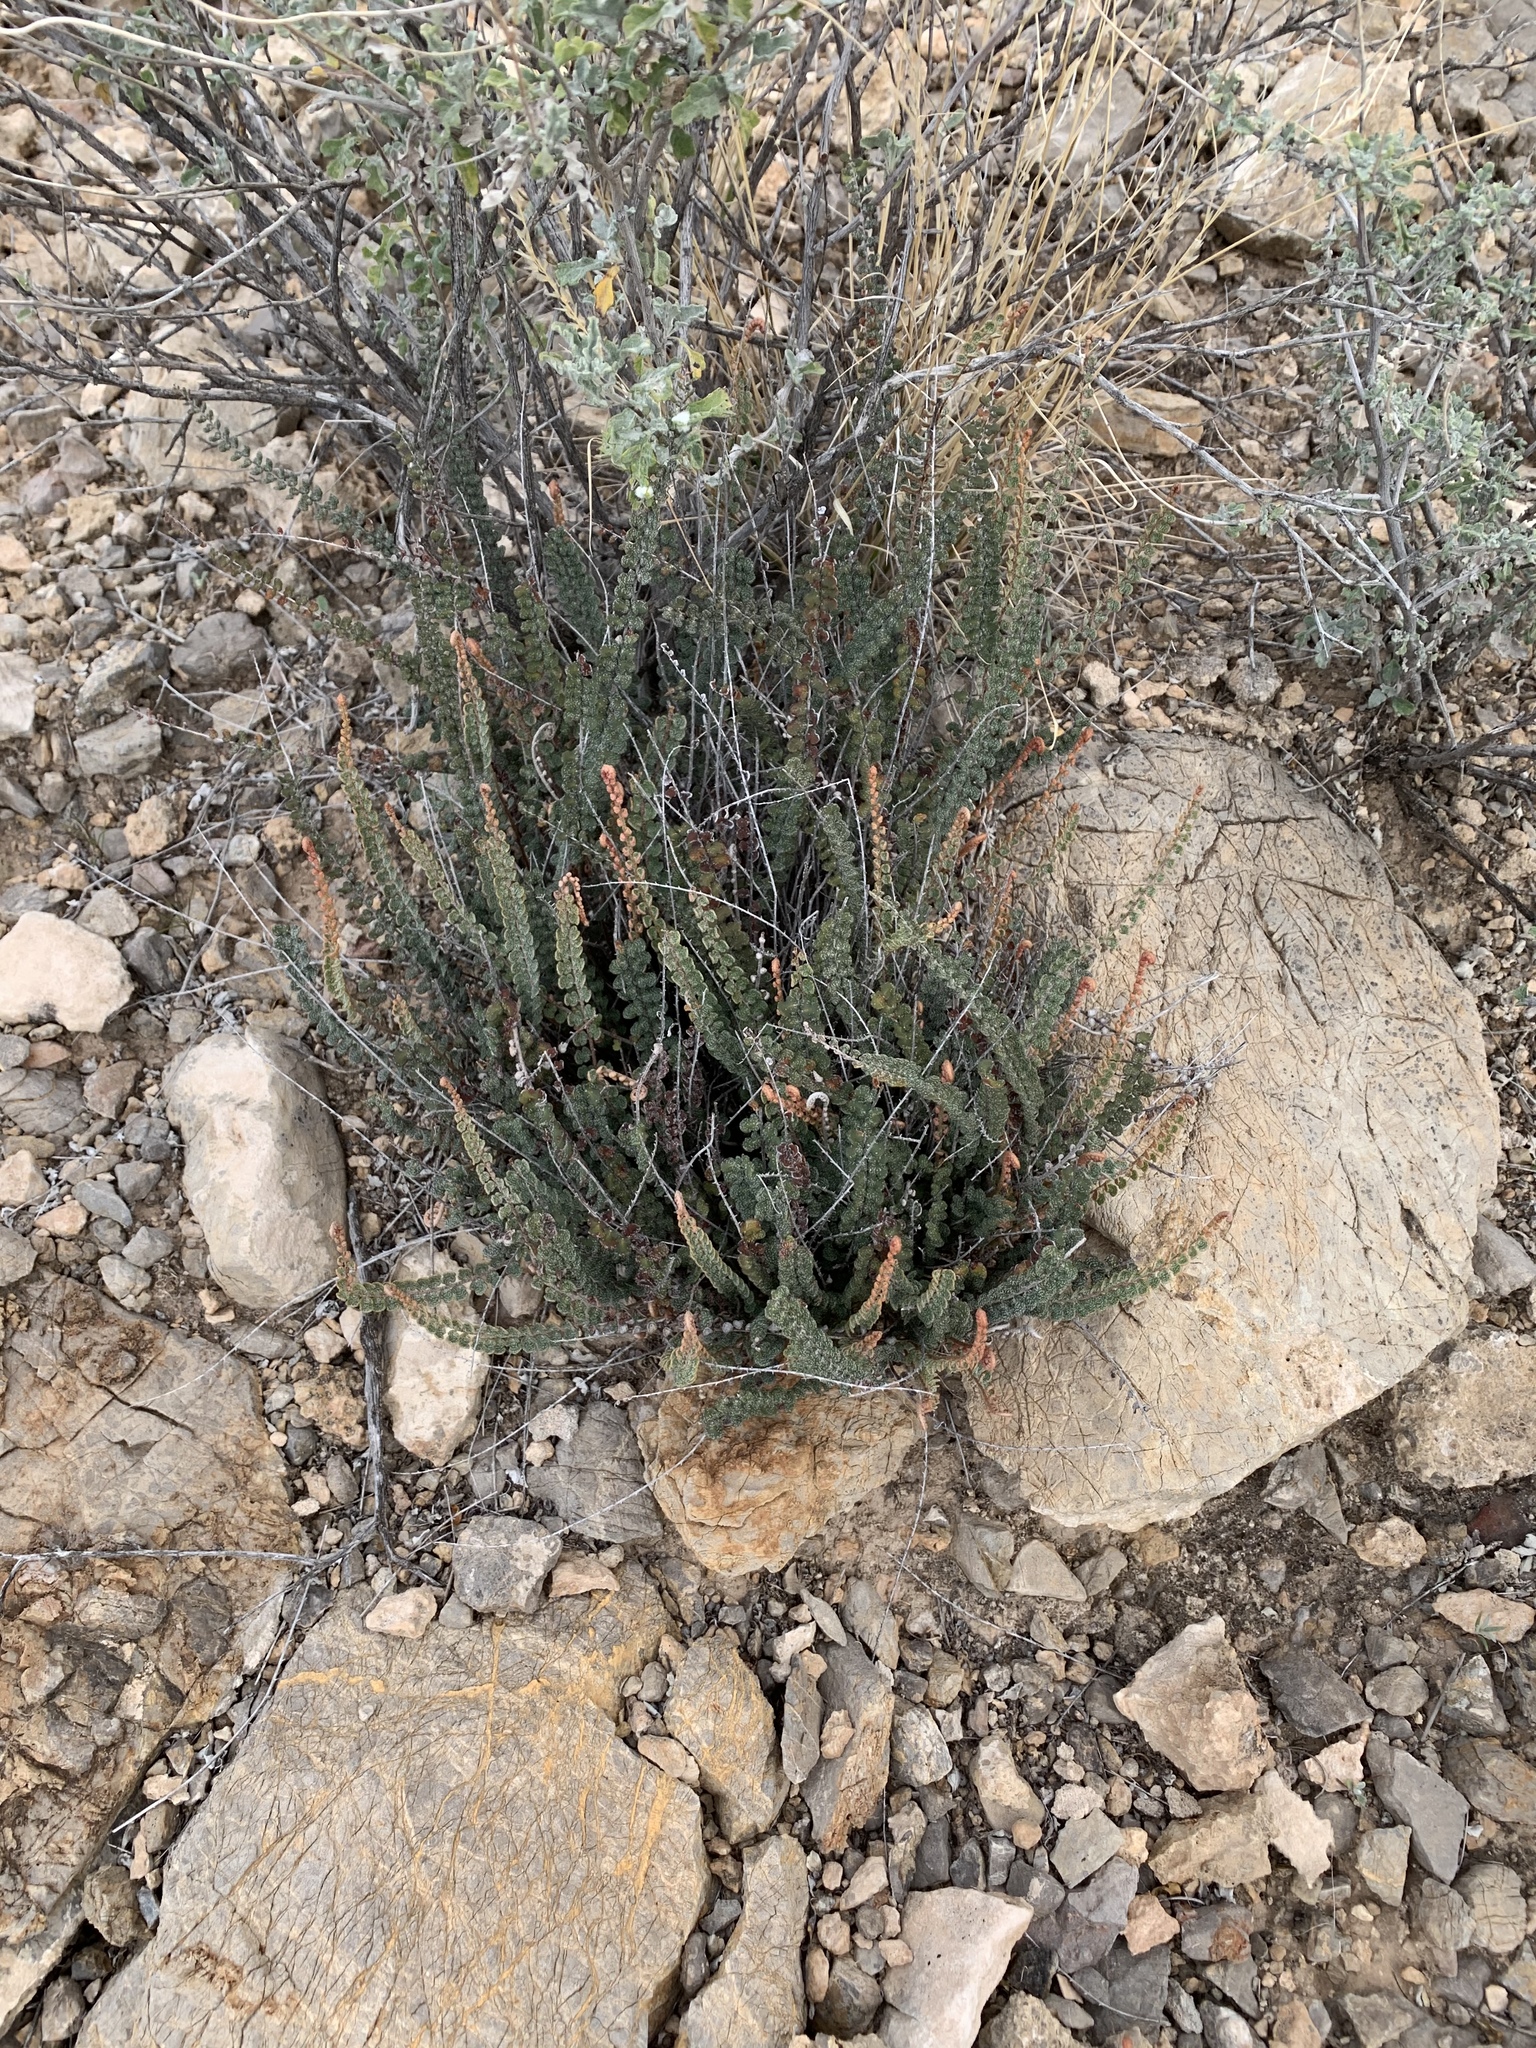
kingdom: Plantae
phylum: Tracheophyta
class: Polypodiopsida
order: Polypodiales
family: Pteridaceae
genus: Astrolepis
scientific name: Astrolepis cochisensis
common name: Scaly cloak fern
